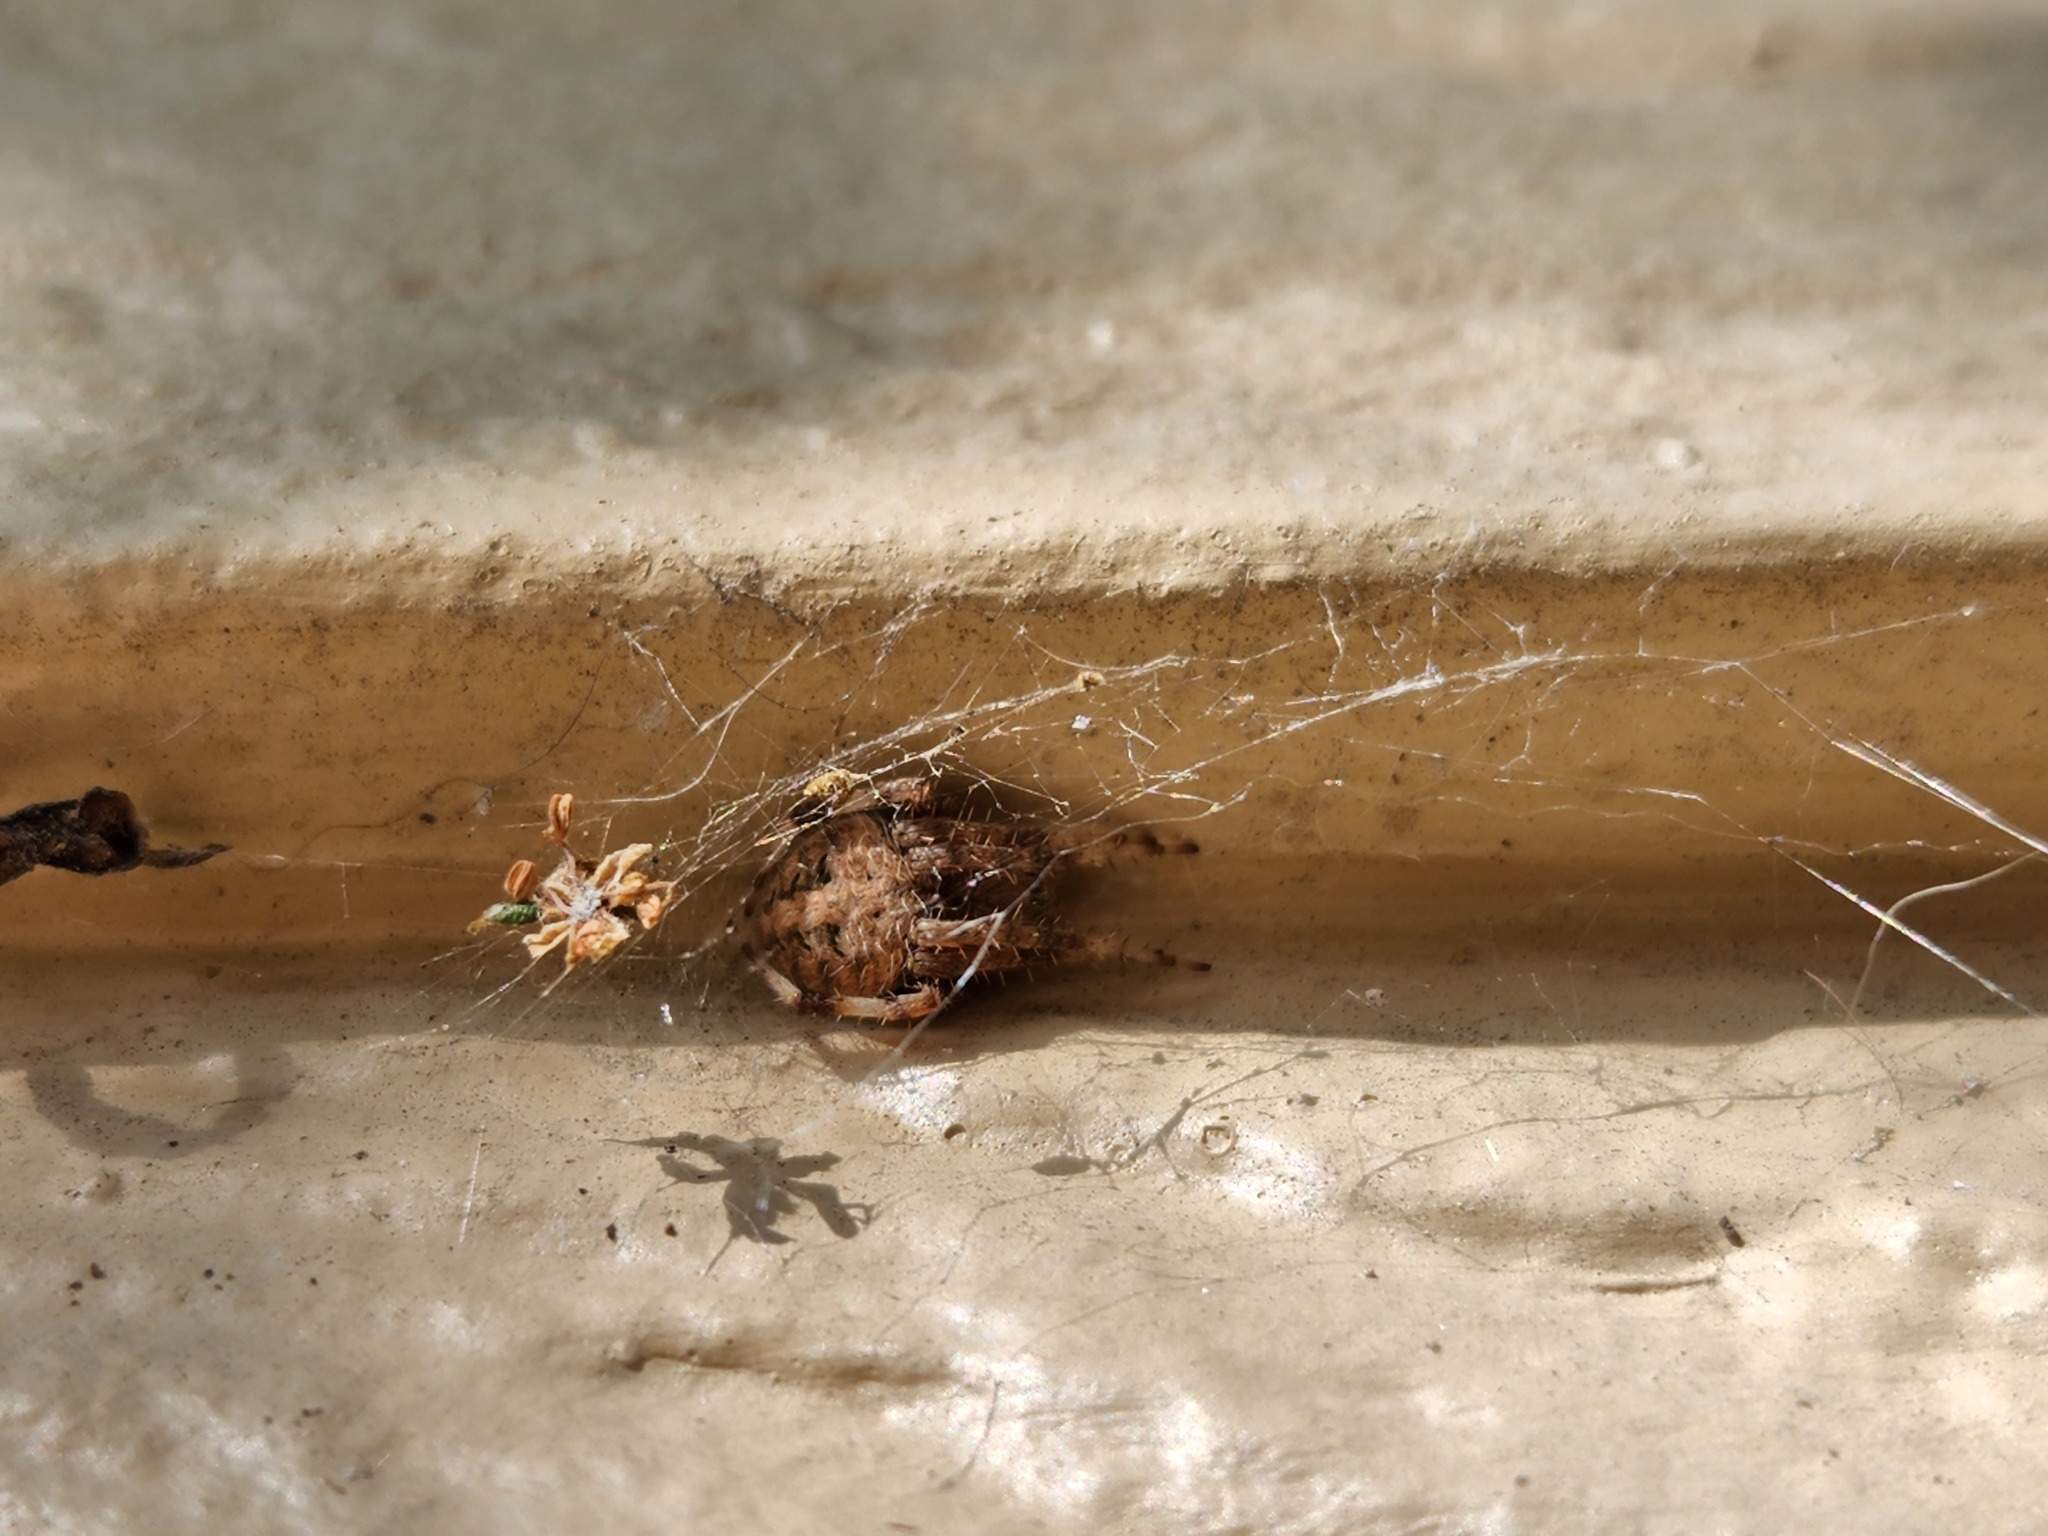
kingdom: Animalia
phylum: Arthropoda
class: Arachnida
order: Araneae
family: Araneidae
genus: Neoscona
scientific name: Neoscona arabesca
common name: Orb weavers
